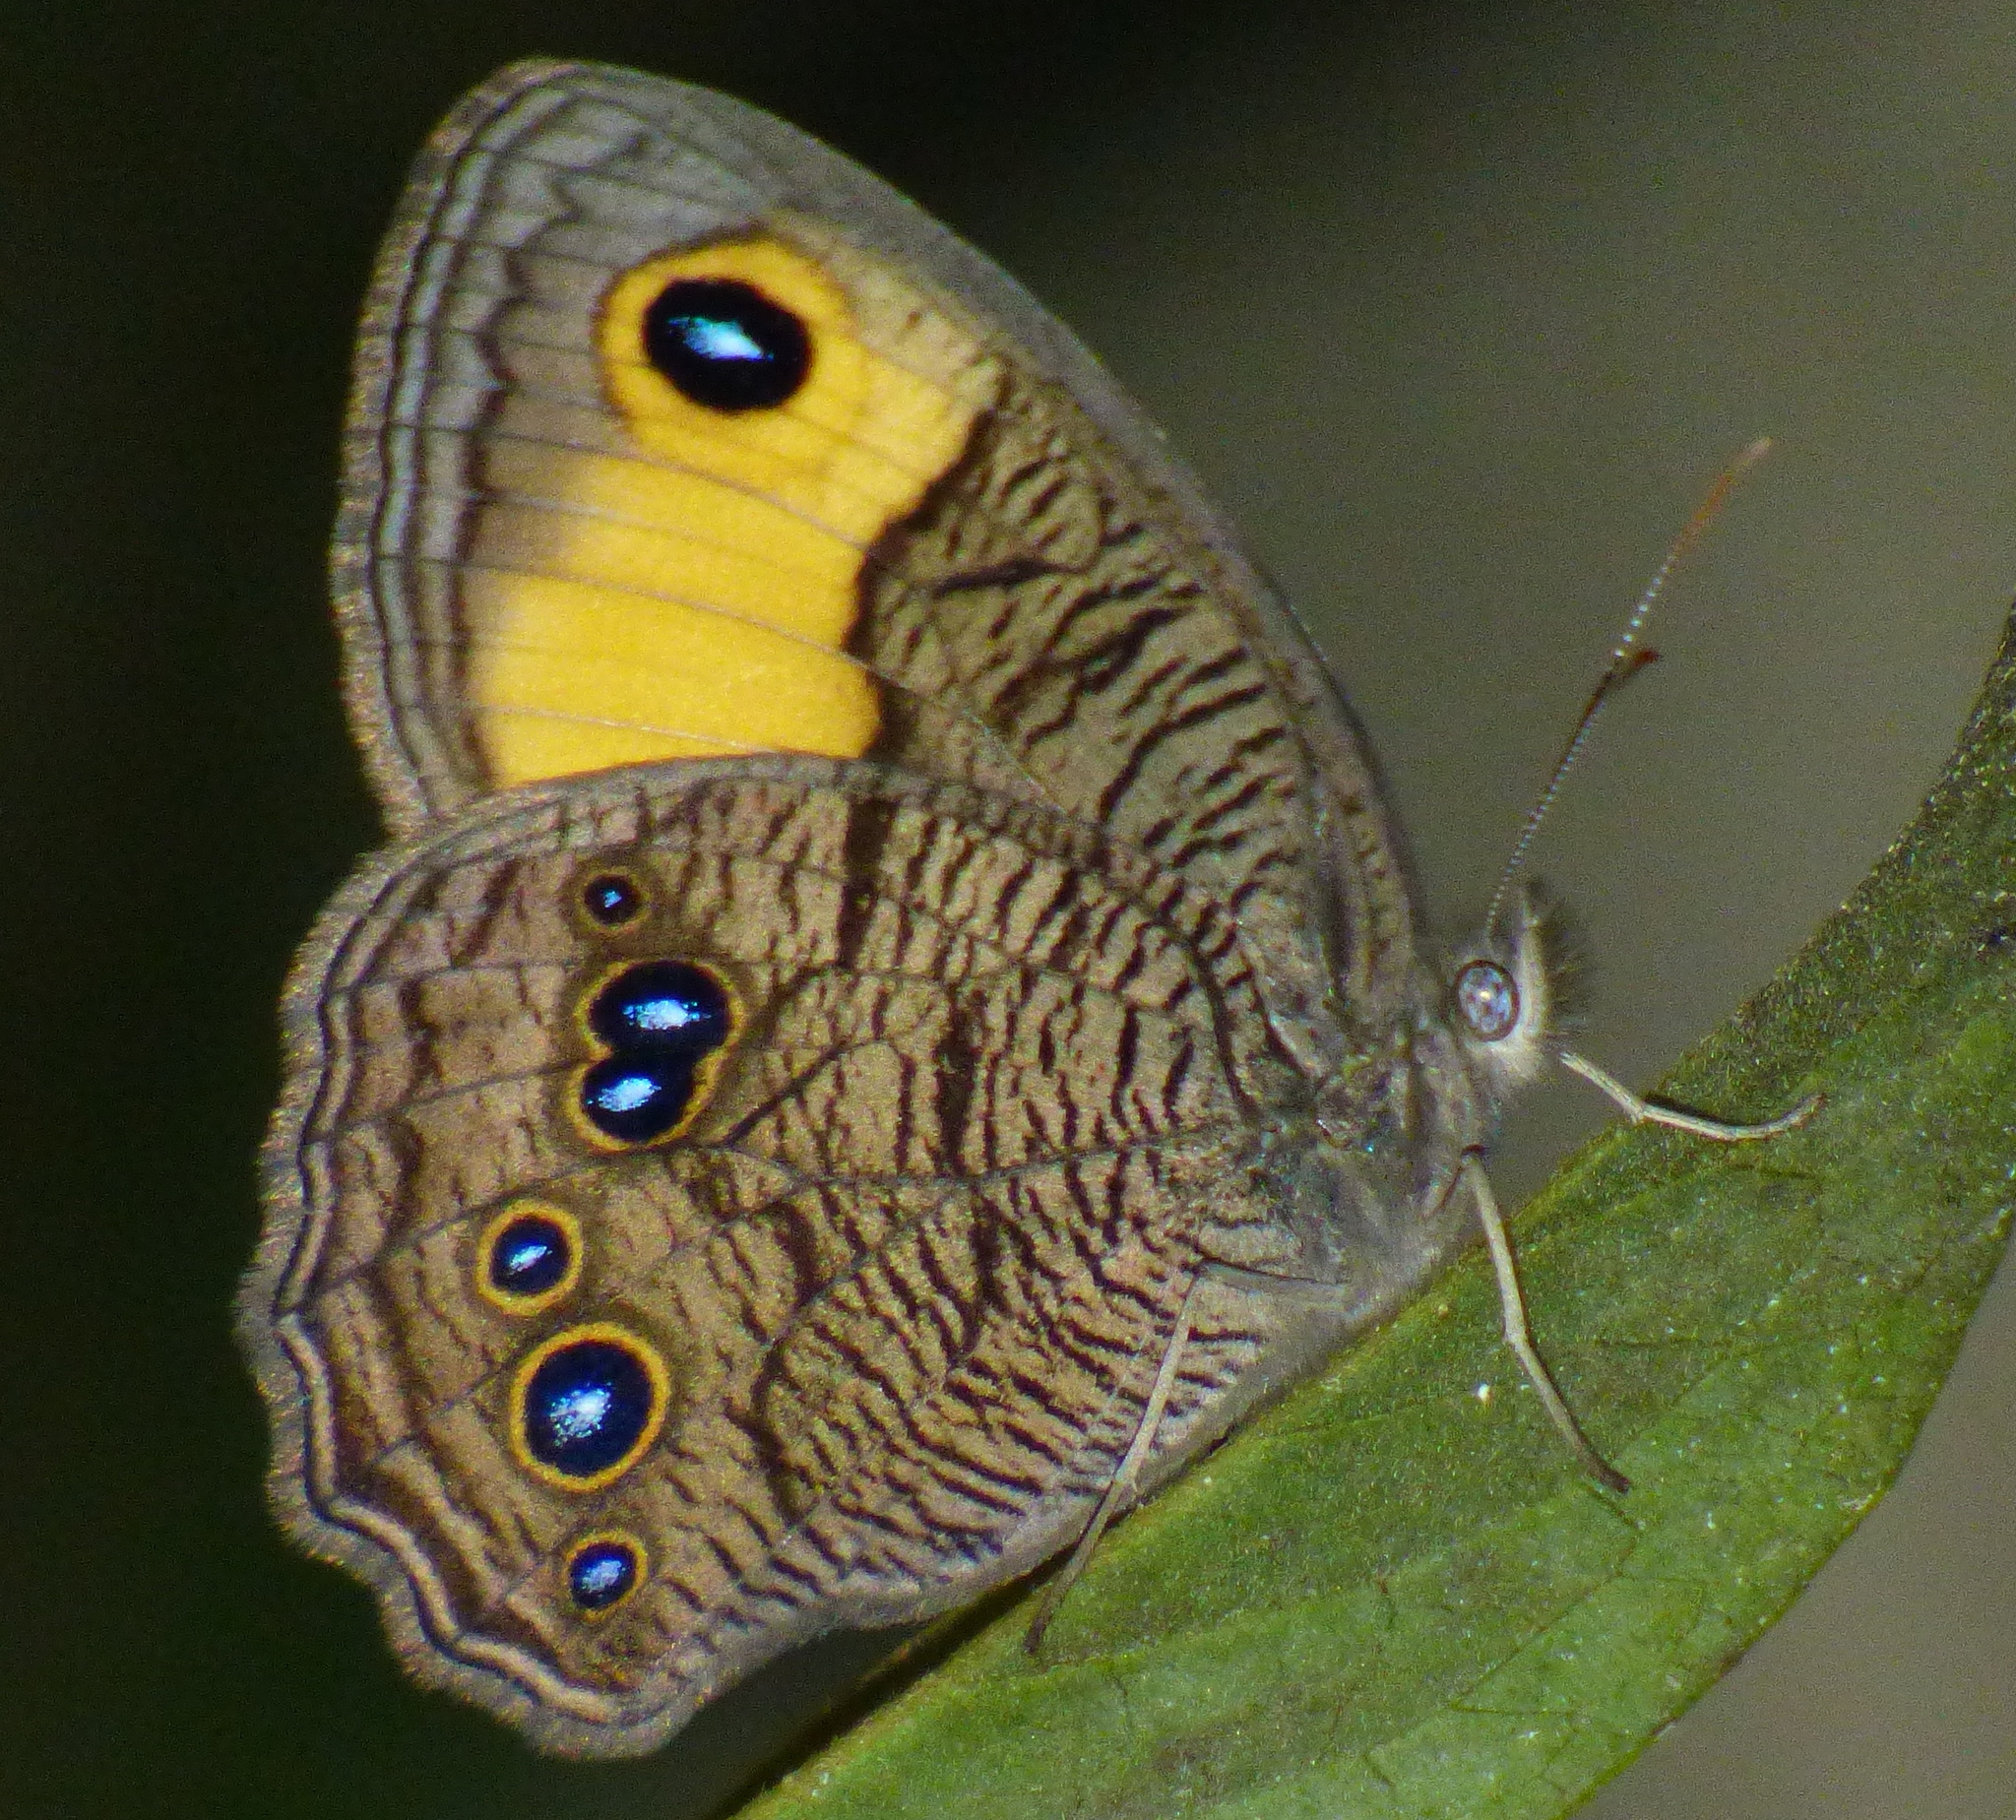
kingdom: Animalia
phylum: Arthropoda
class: Insecta
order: Lepidoptera
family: Nymphalidae
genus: Cercyonis
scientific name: Cercyonis pegala
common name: Common wood-nymph
